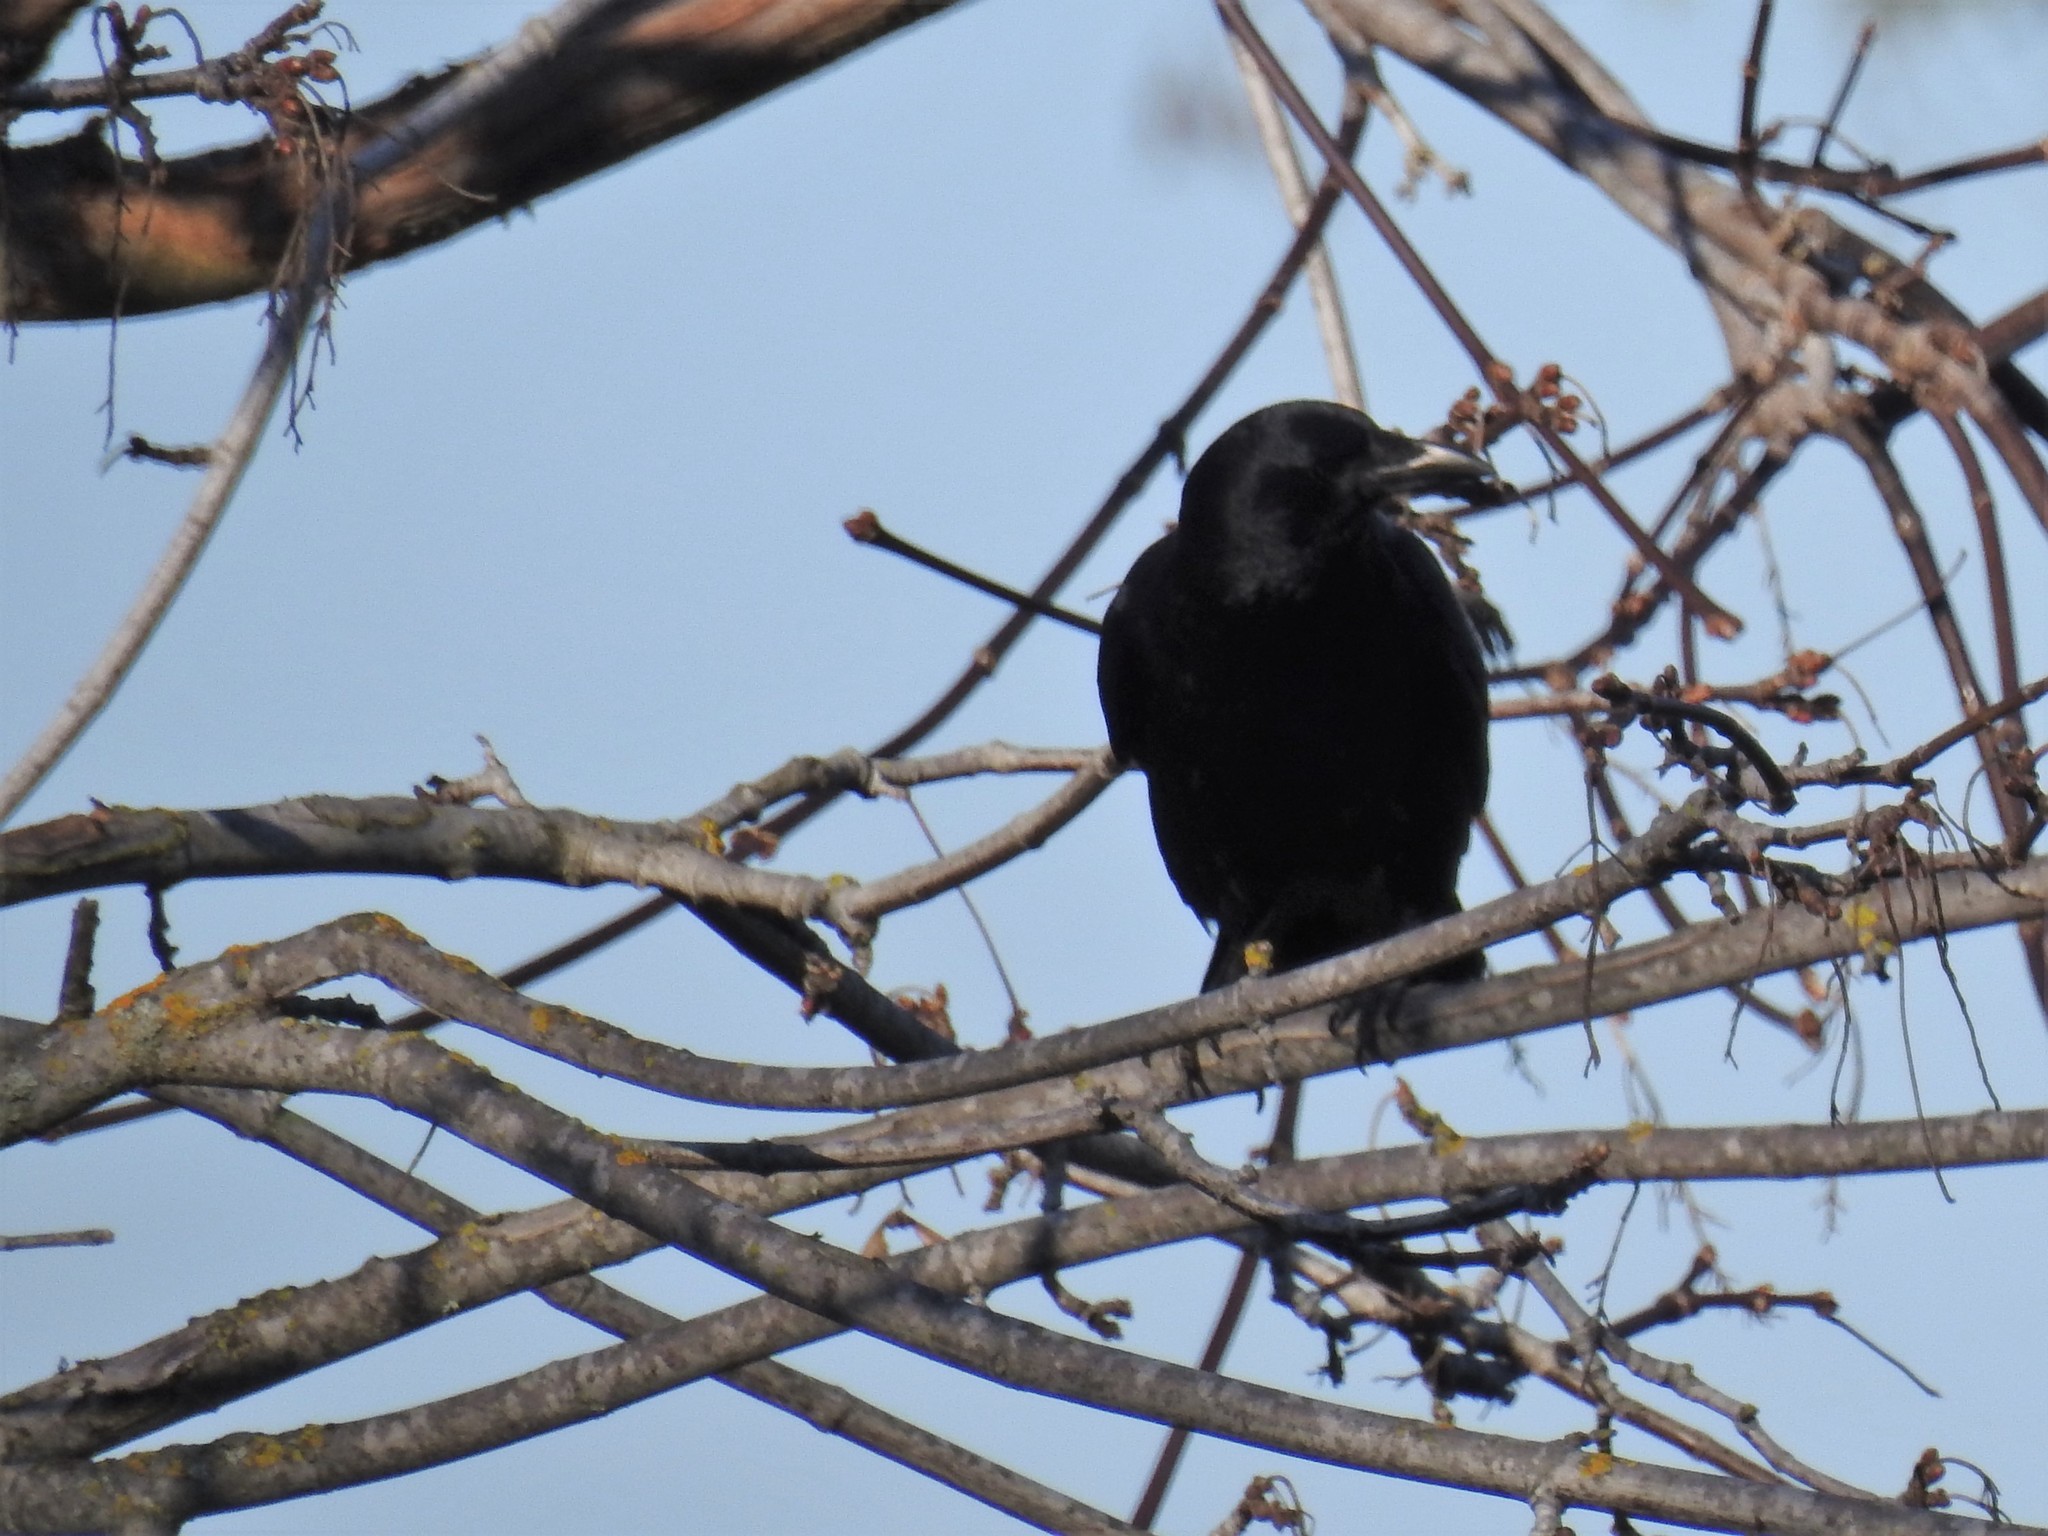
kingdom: Animalia
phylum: Chordata
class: Aves
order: Passeriformes
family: Corvidae
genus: Corvus
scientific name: Corvus brachyrhynchos
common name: American crow
